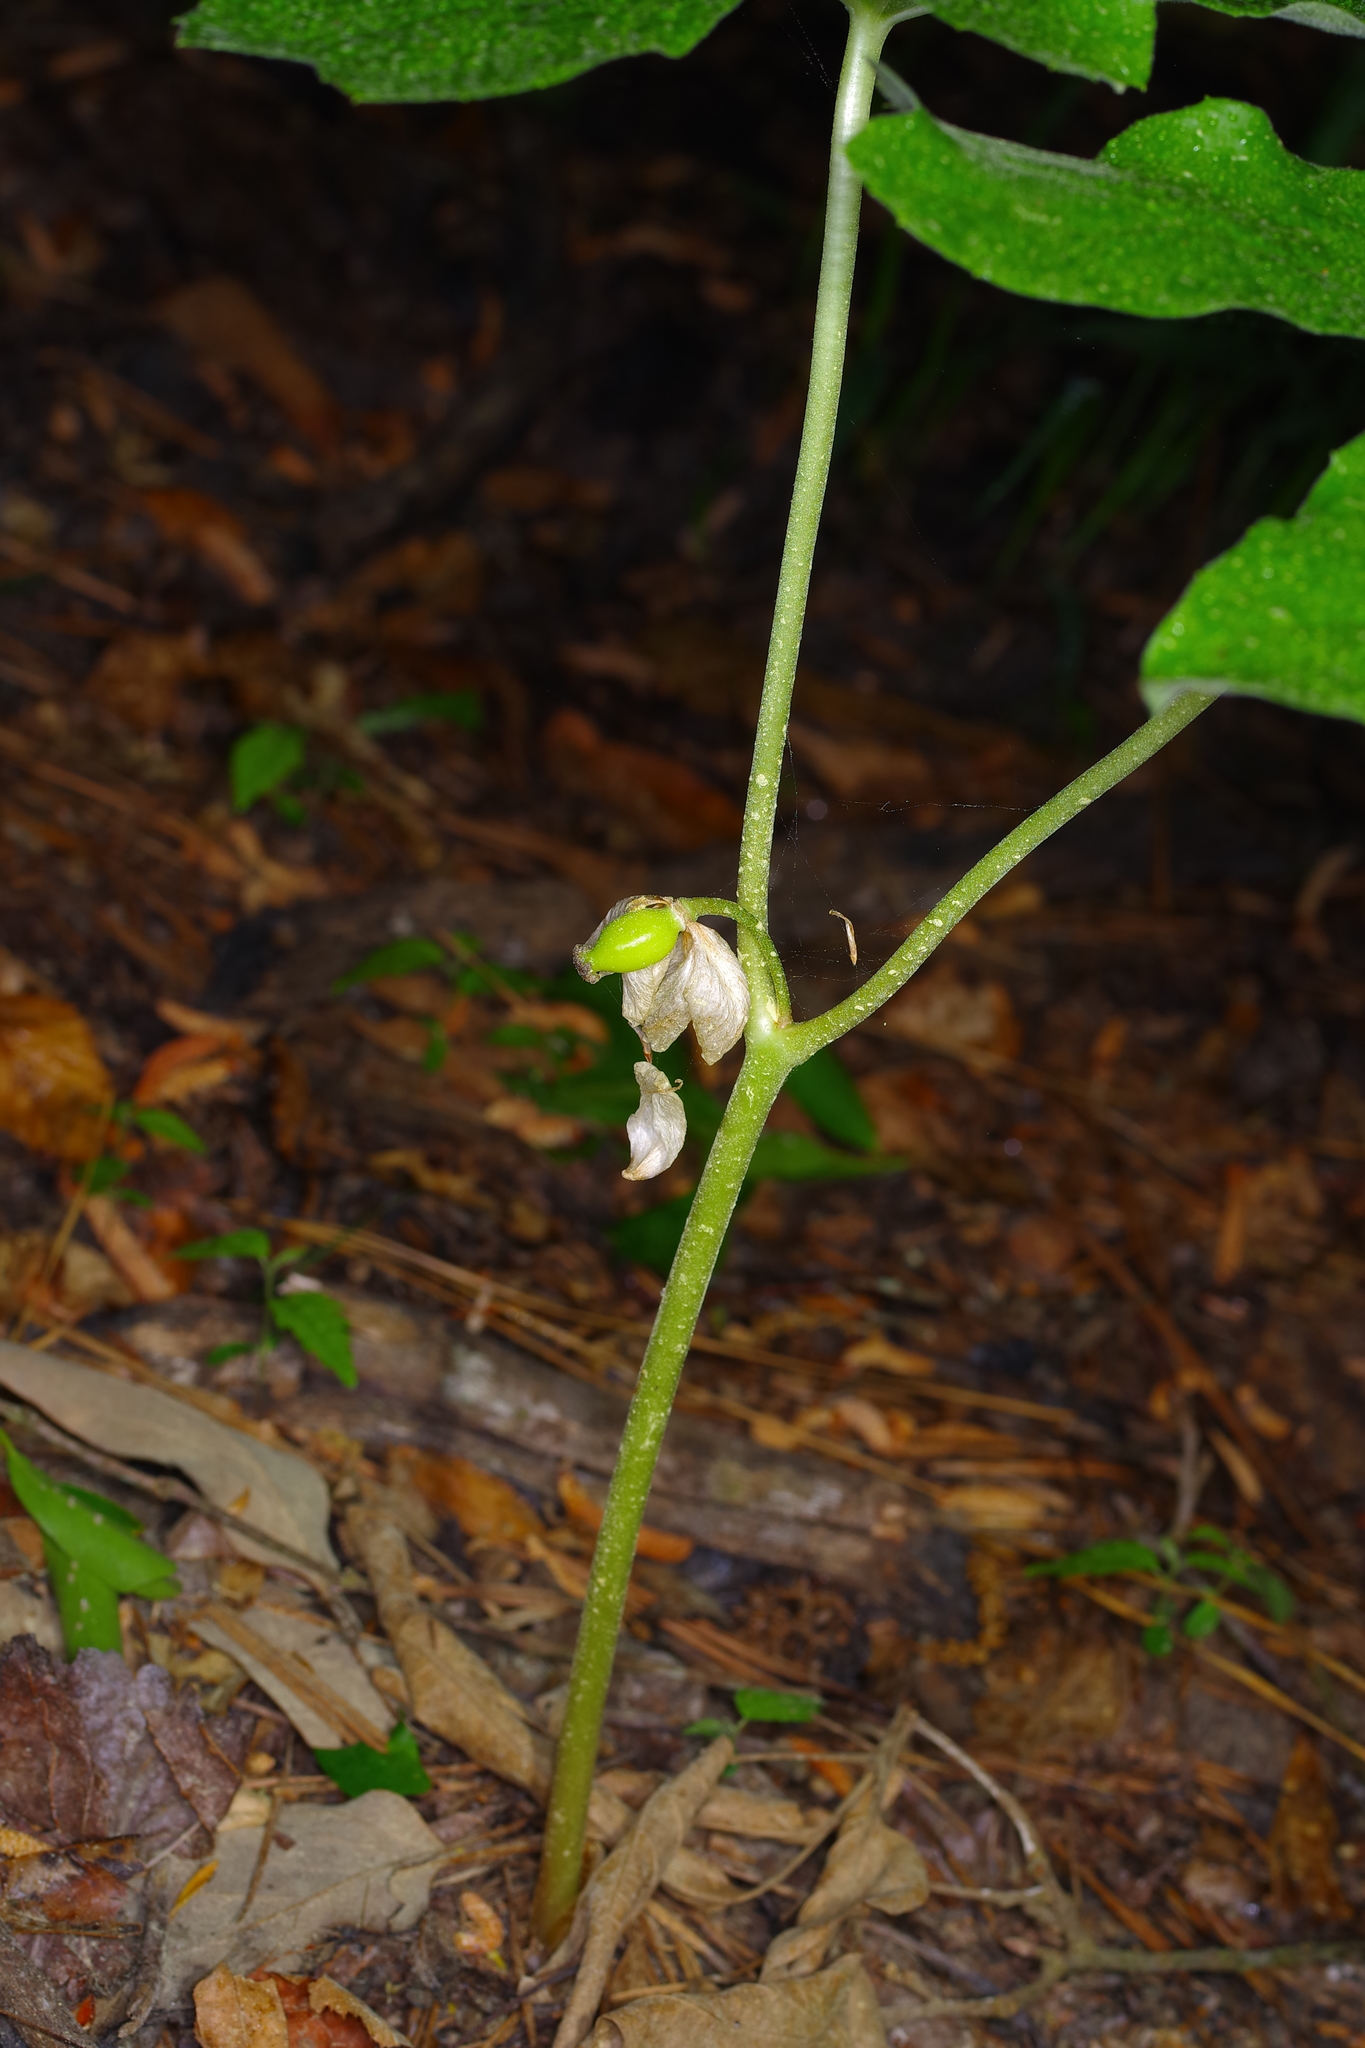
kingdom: Plantae
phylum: Tracheophyta
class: Magnoliopsida
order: Ranunculales
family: Berberidaceae
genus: Podophyllum
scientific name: Podophyllum peltatum
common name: Wild mandrake
